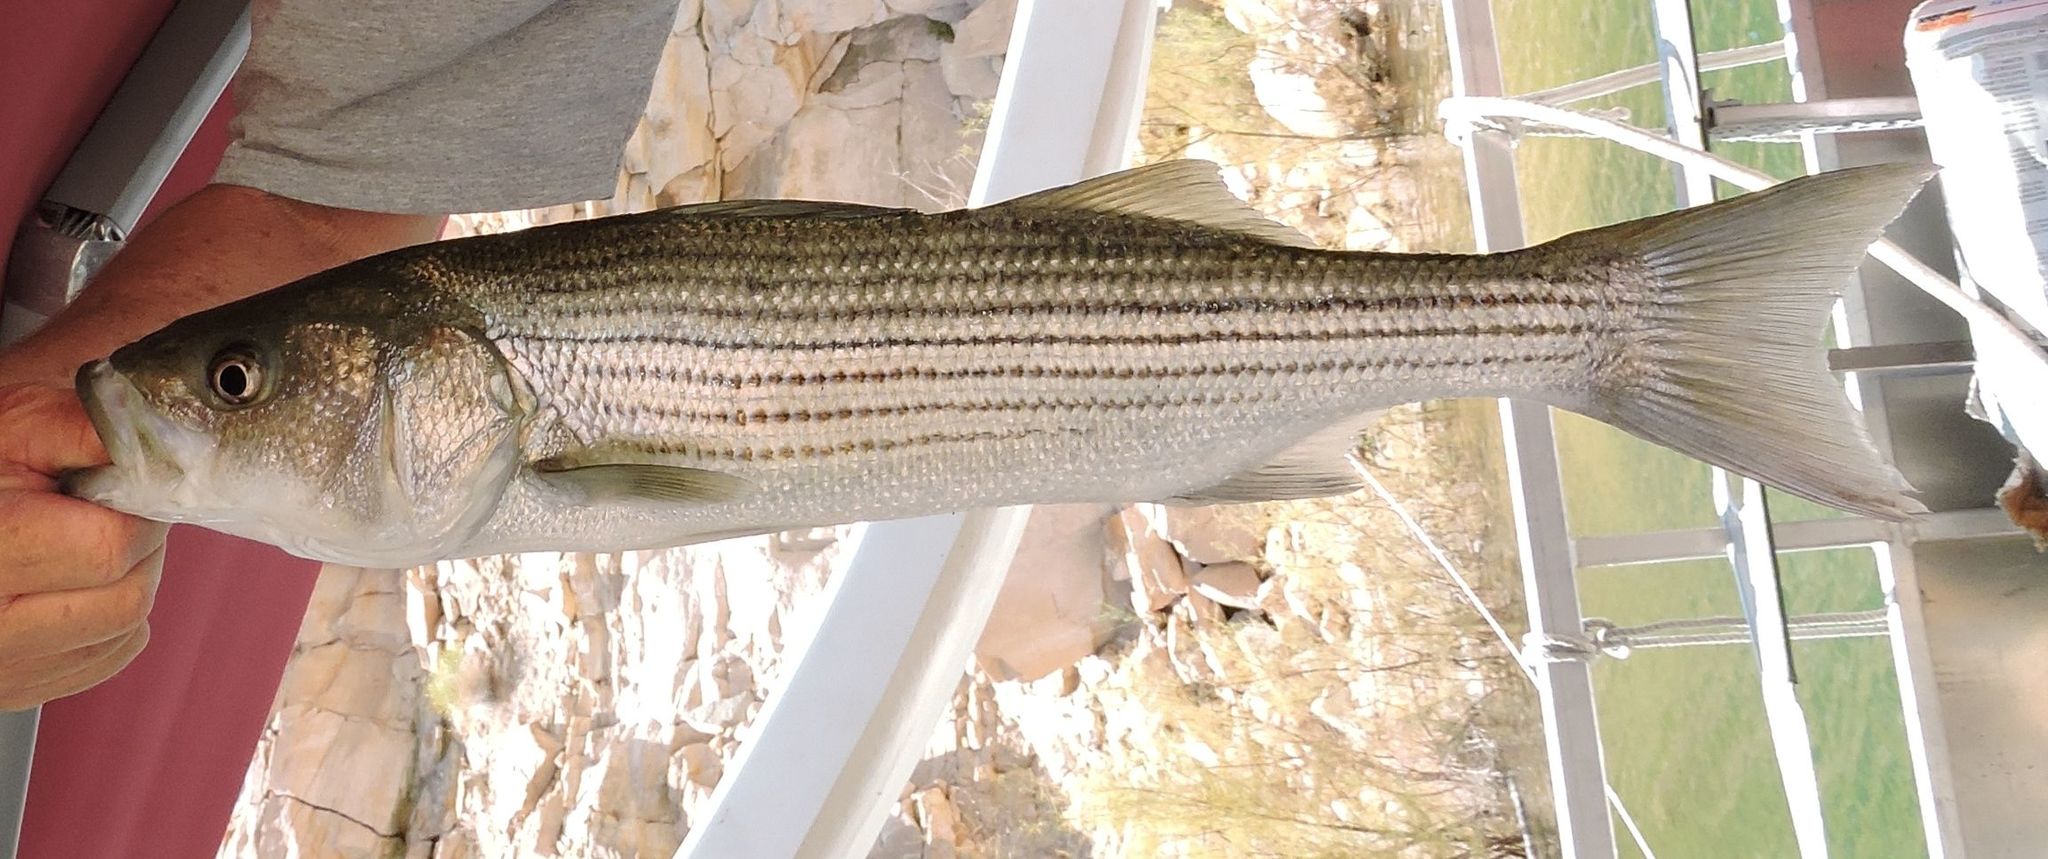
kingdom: Animalia
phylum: Chordata
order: Perciformes
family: Moronidae
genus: Morone
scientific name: Morone saxatilis
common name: Striped bass
